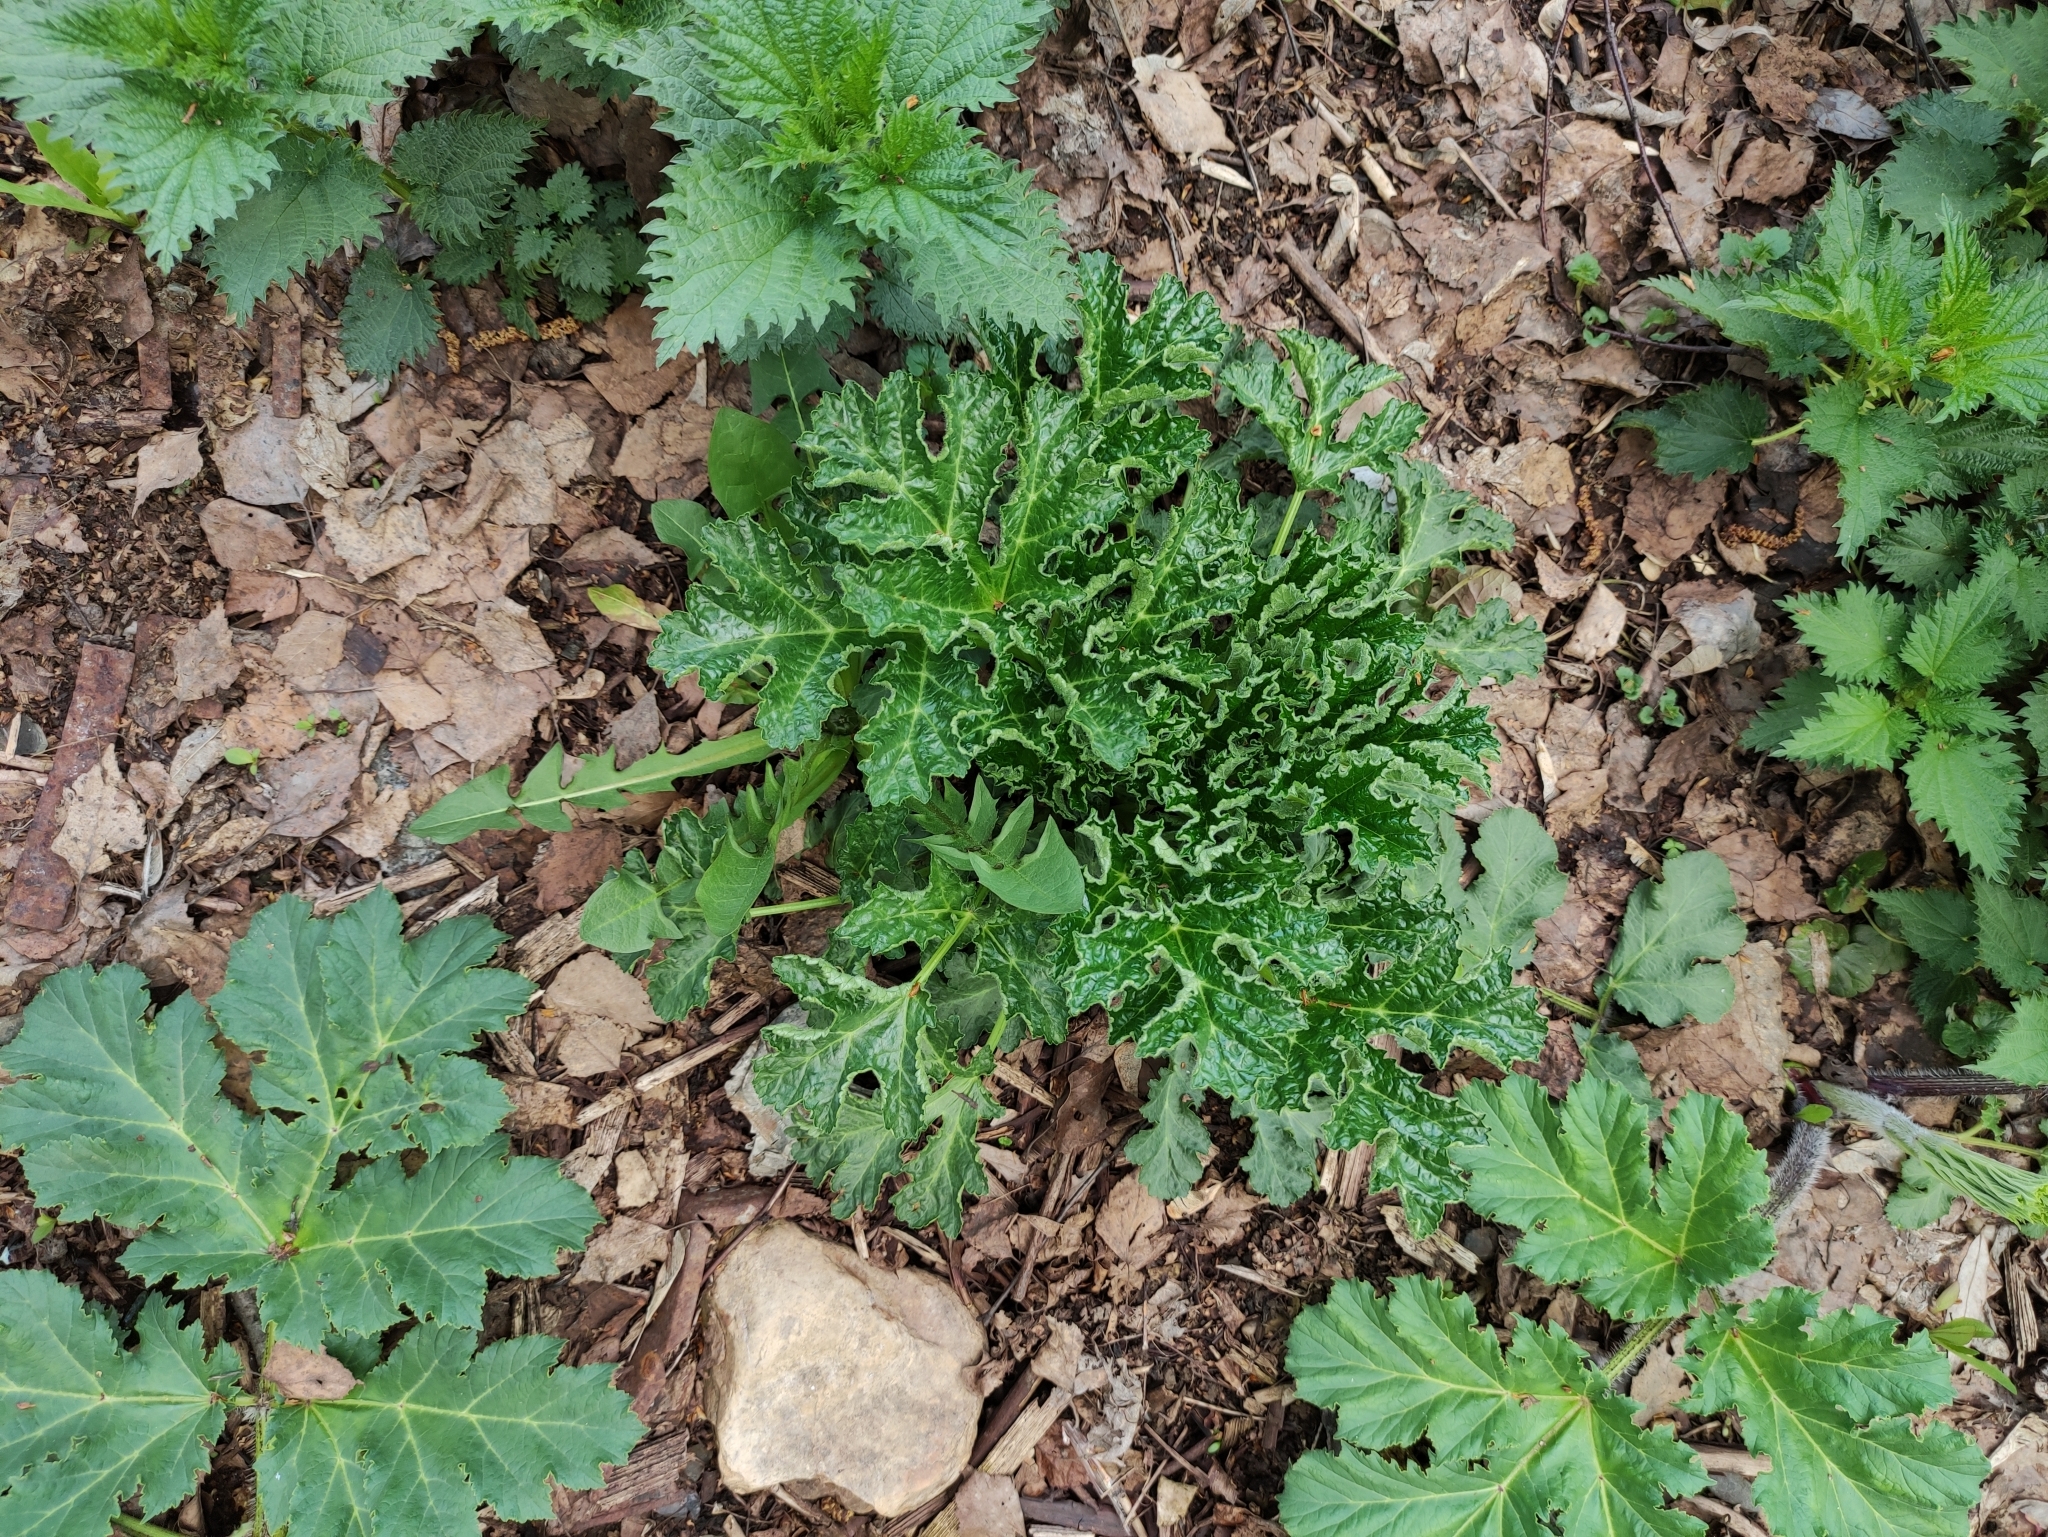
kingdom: Plantae
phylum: Tracheophyta
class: Magnoliopsida
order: Apiales
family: Apiaceae
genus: Heracleum
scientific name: Heracleum sosnowskyi
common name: Sosnowsky's hogweed
